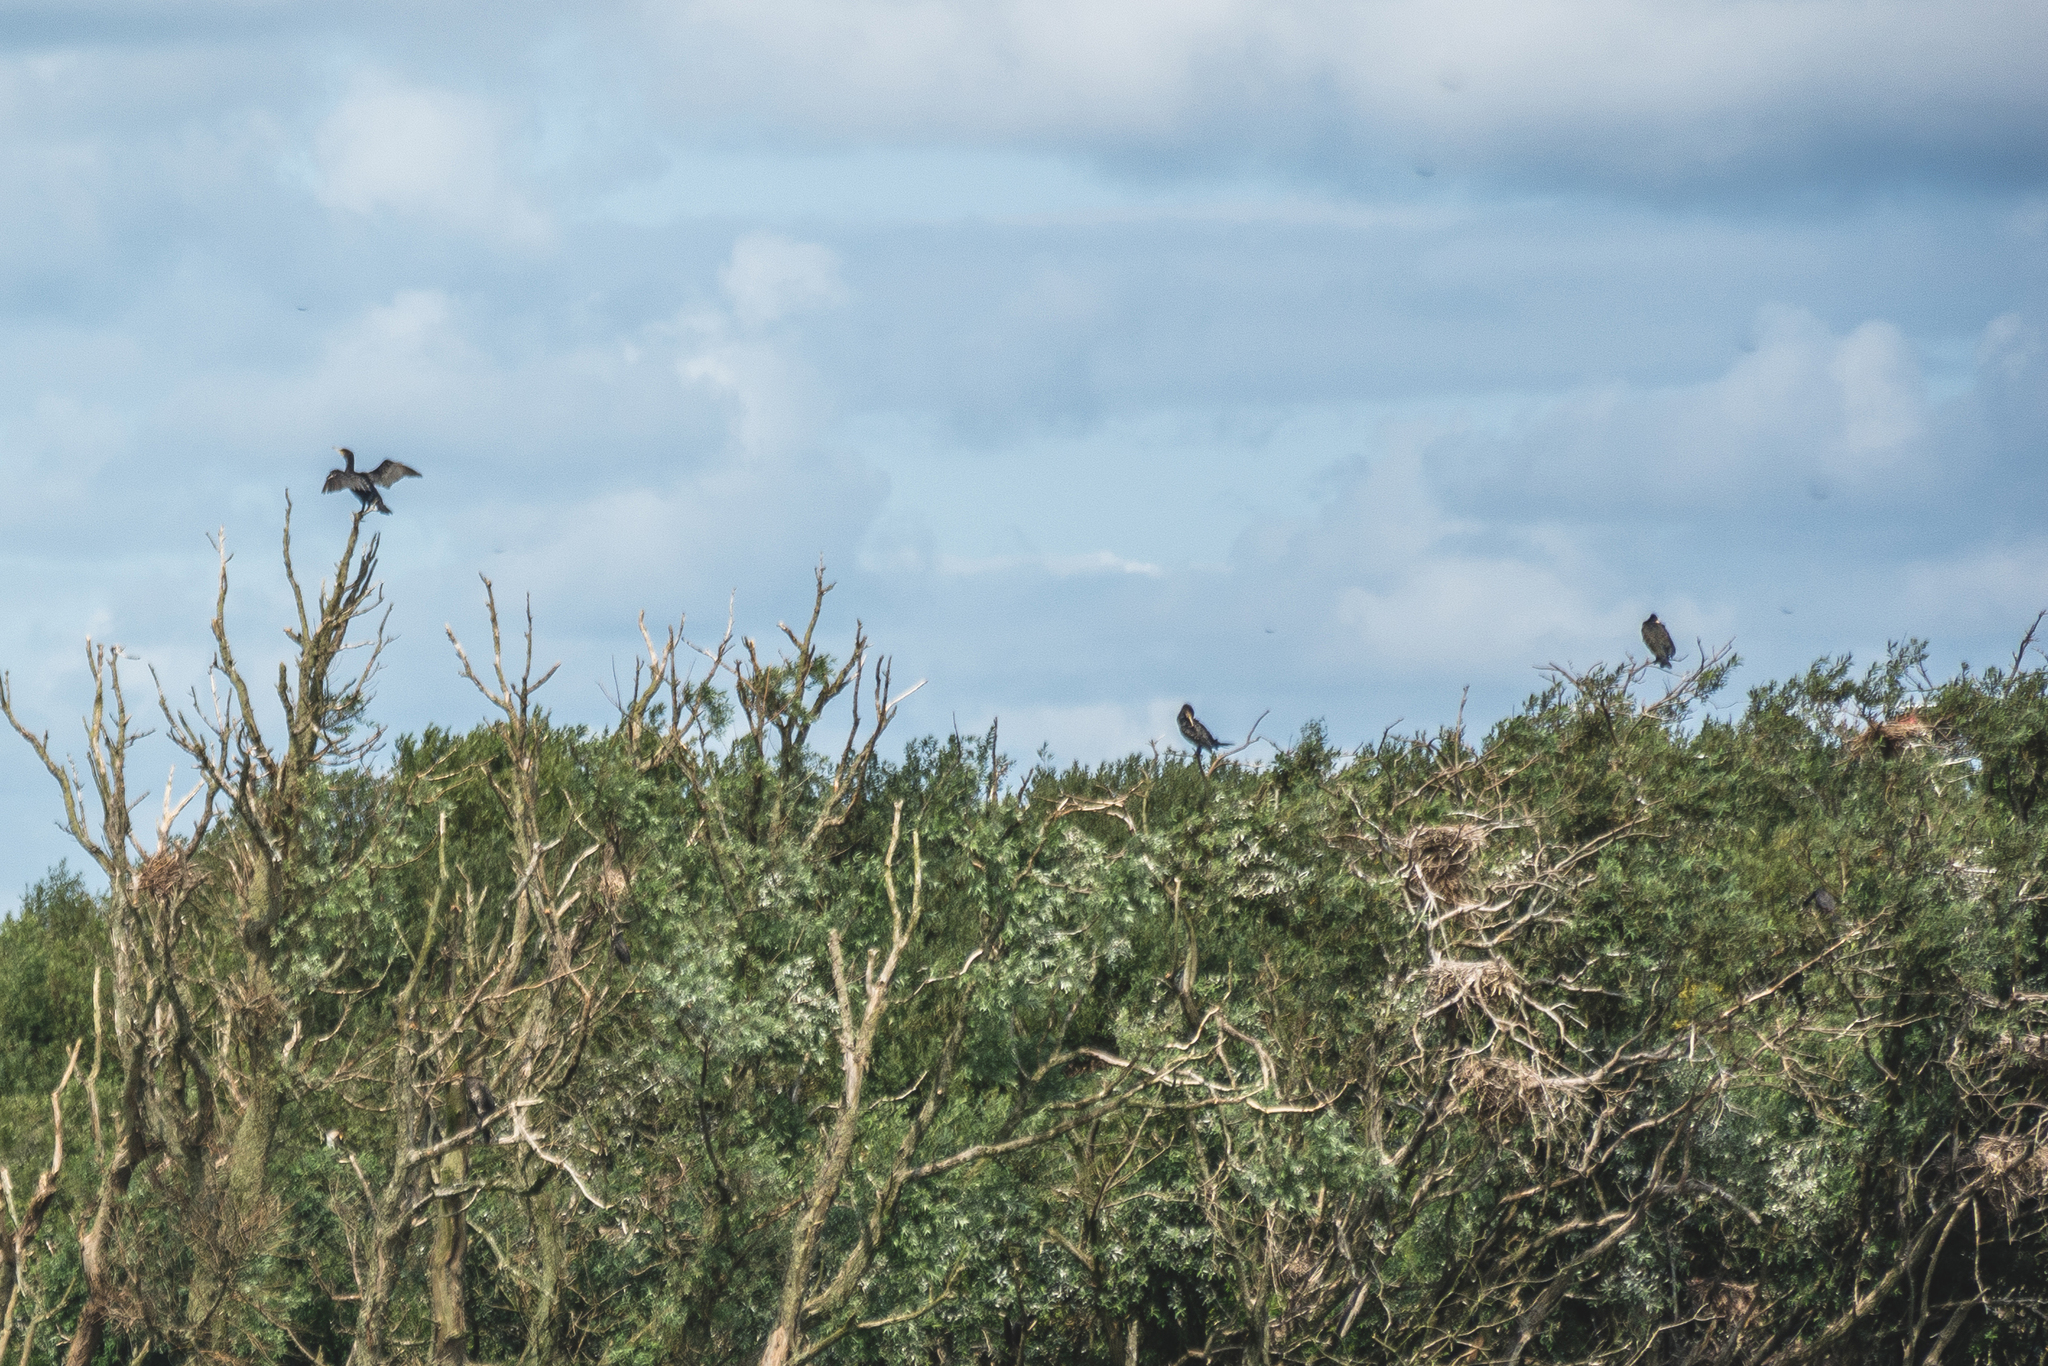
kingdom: Animalia
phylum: Chordata
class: Aves
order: Suliformes
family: Phalacrocoracidae
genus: Phalacrocorax
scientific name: Phalacrocorax carbo
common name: Great cormorant
